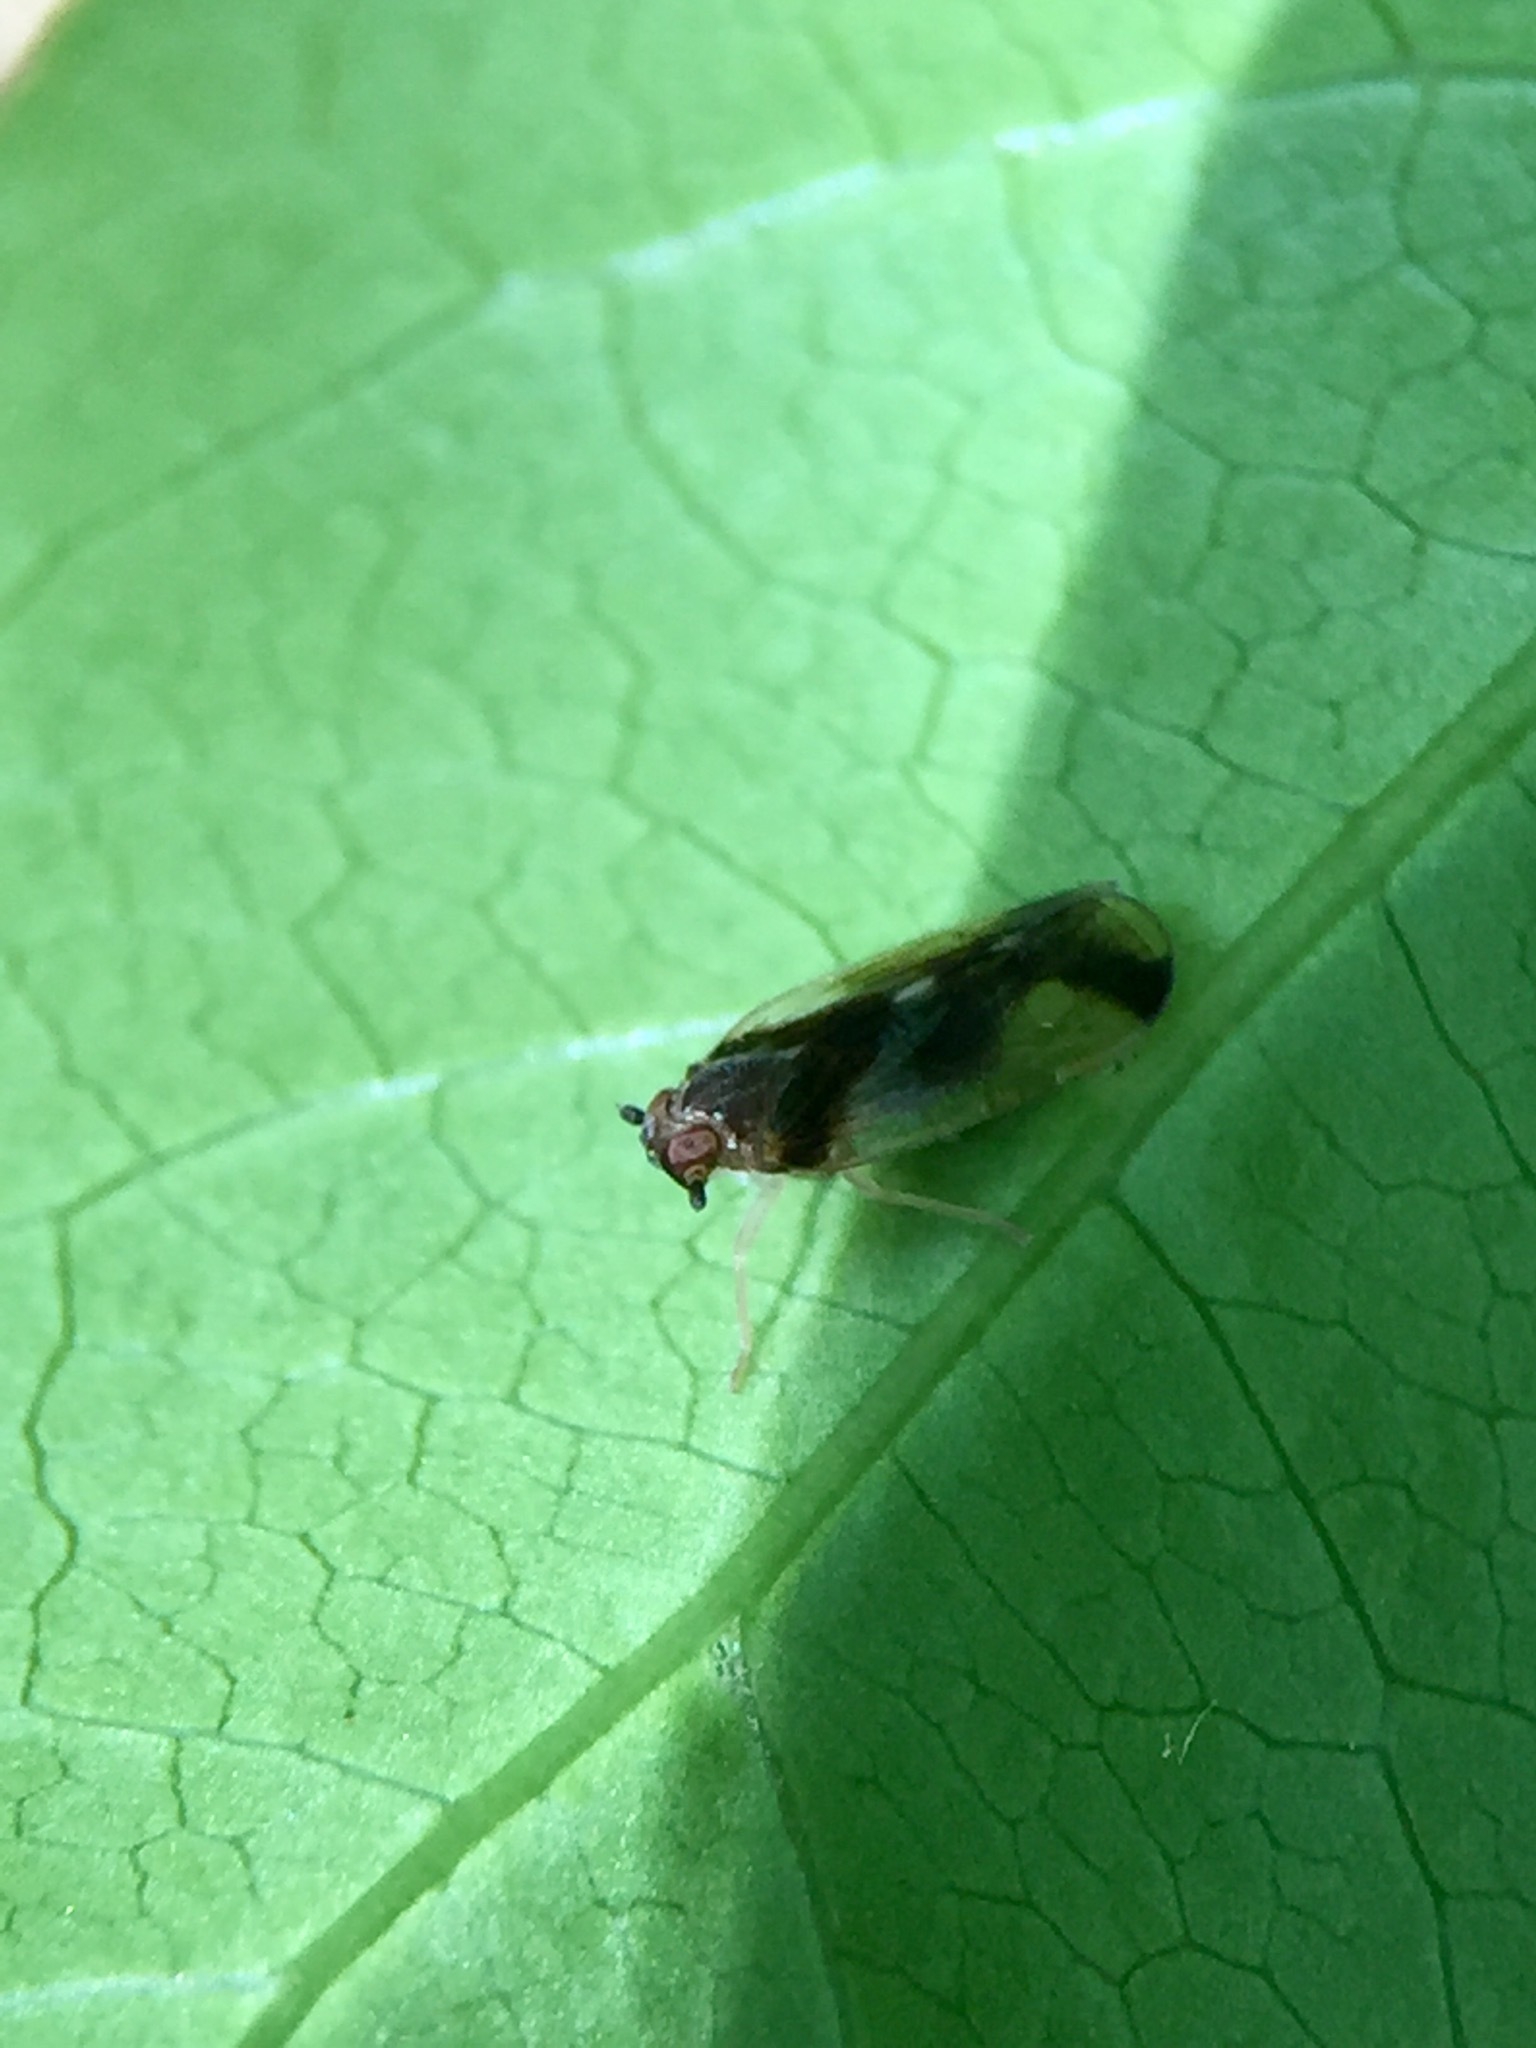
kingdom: Animalia
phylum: Arthropoda
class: Insecta
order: Hemiptera
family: Cixiidae
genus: Tiriteana
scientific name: Tiriteana clarkei
